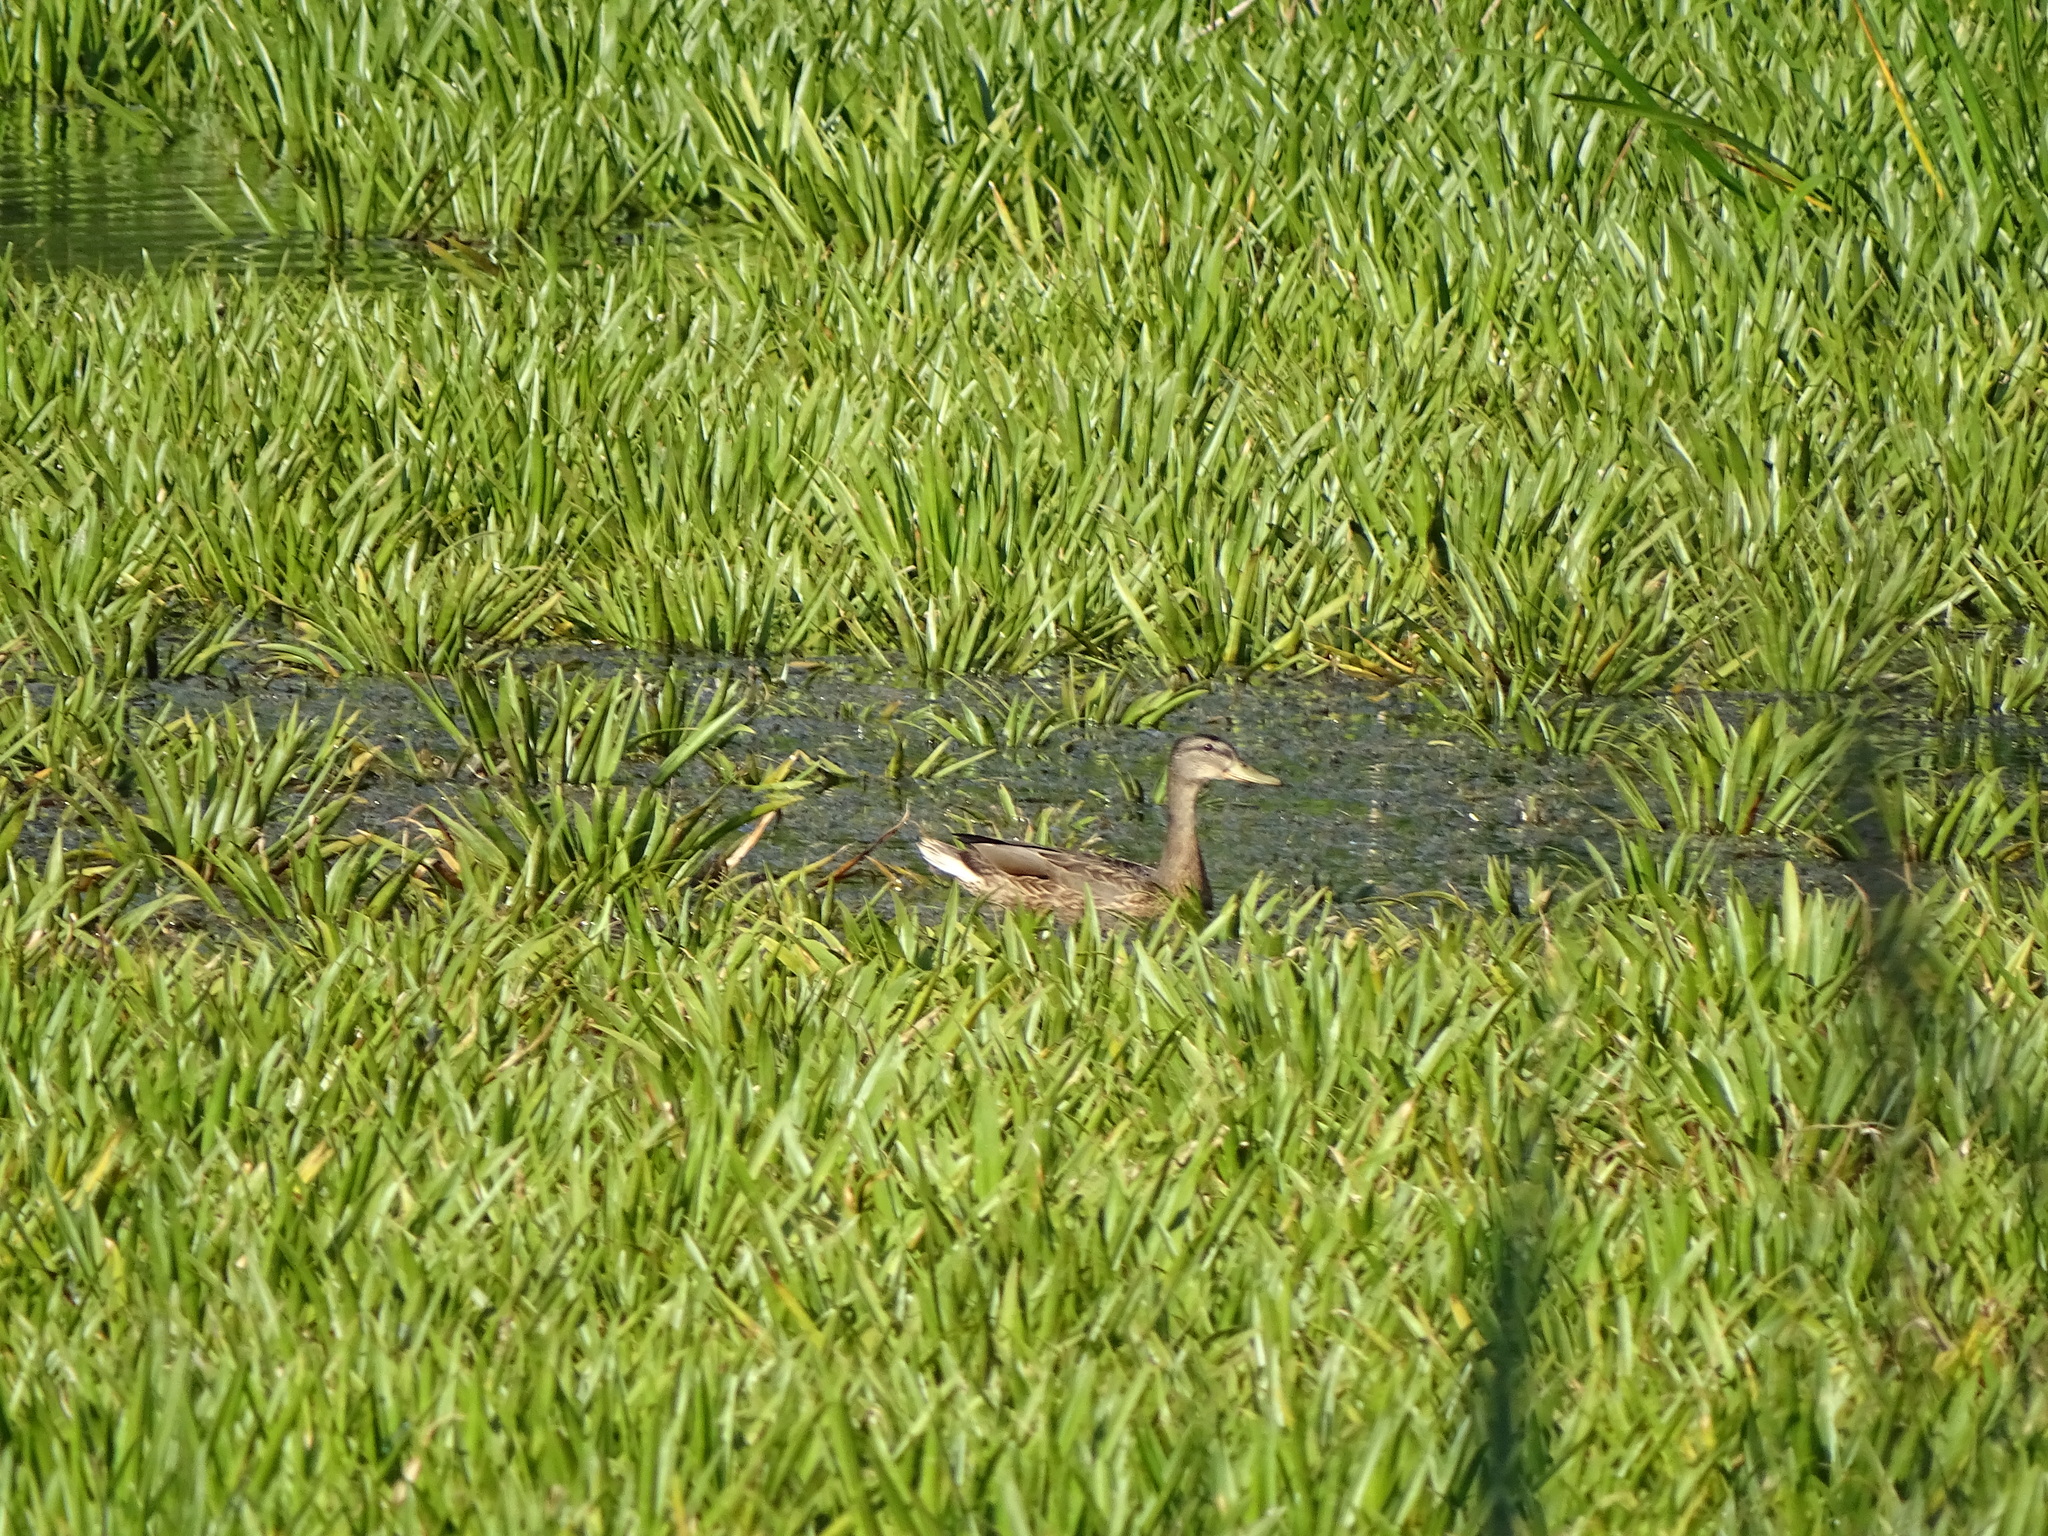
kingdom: Animalia
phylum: Chordata
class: Aves
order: Anseriformes
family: Anatidae
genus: Anas
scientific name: Anas platyrhynchos
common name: Mallard
